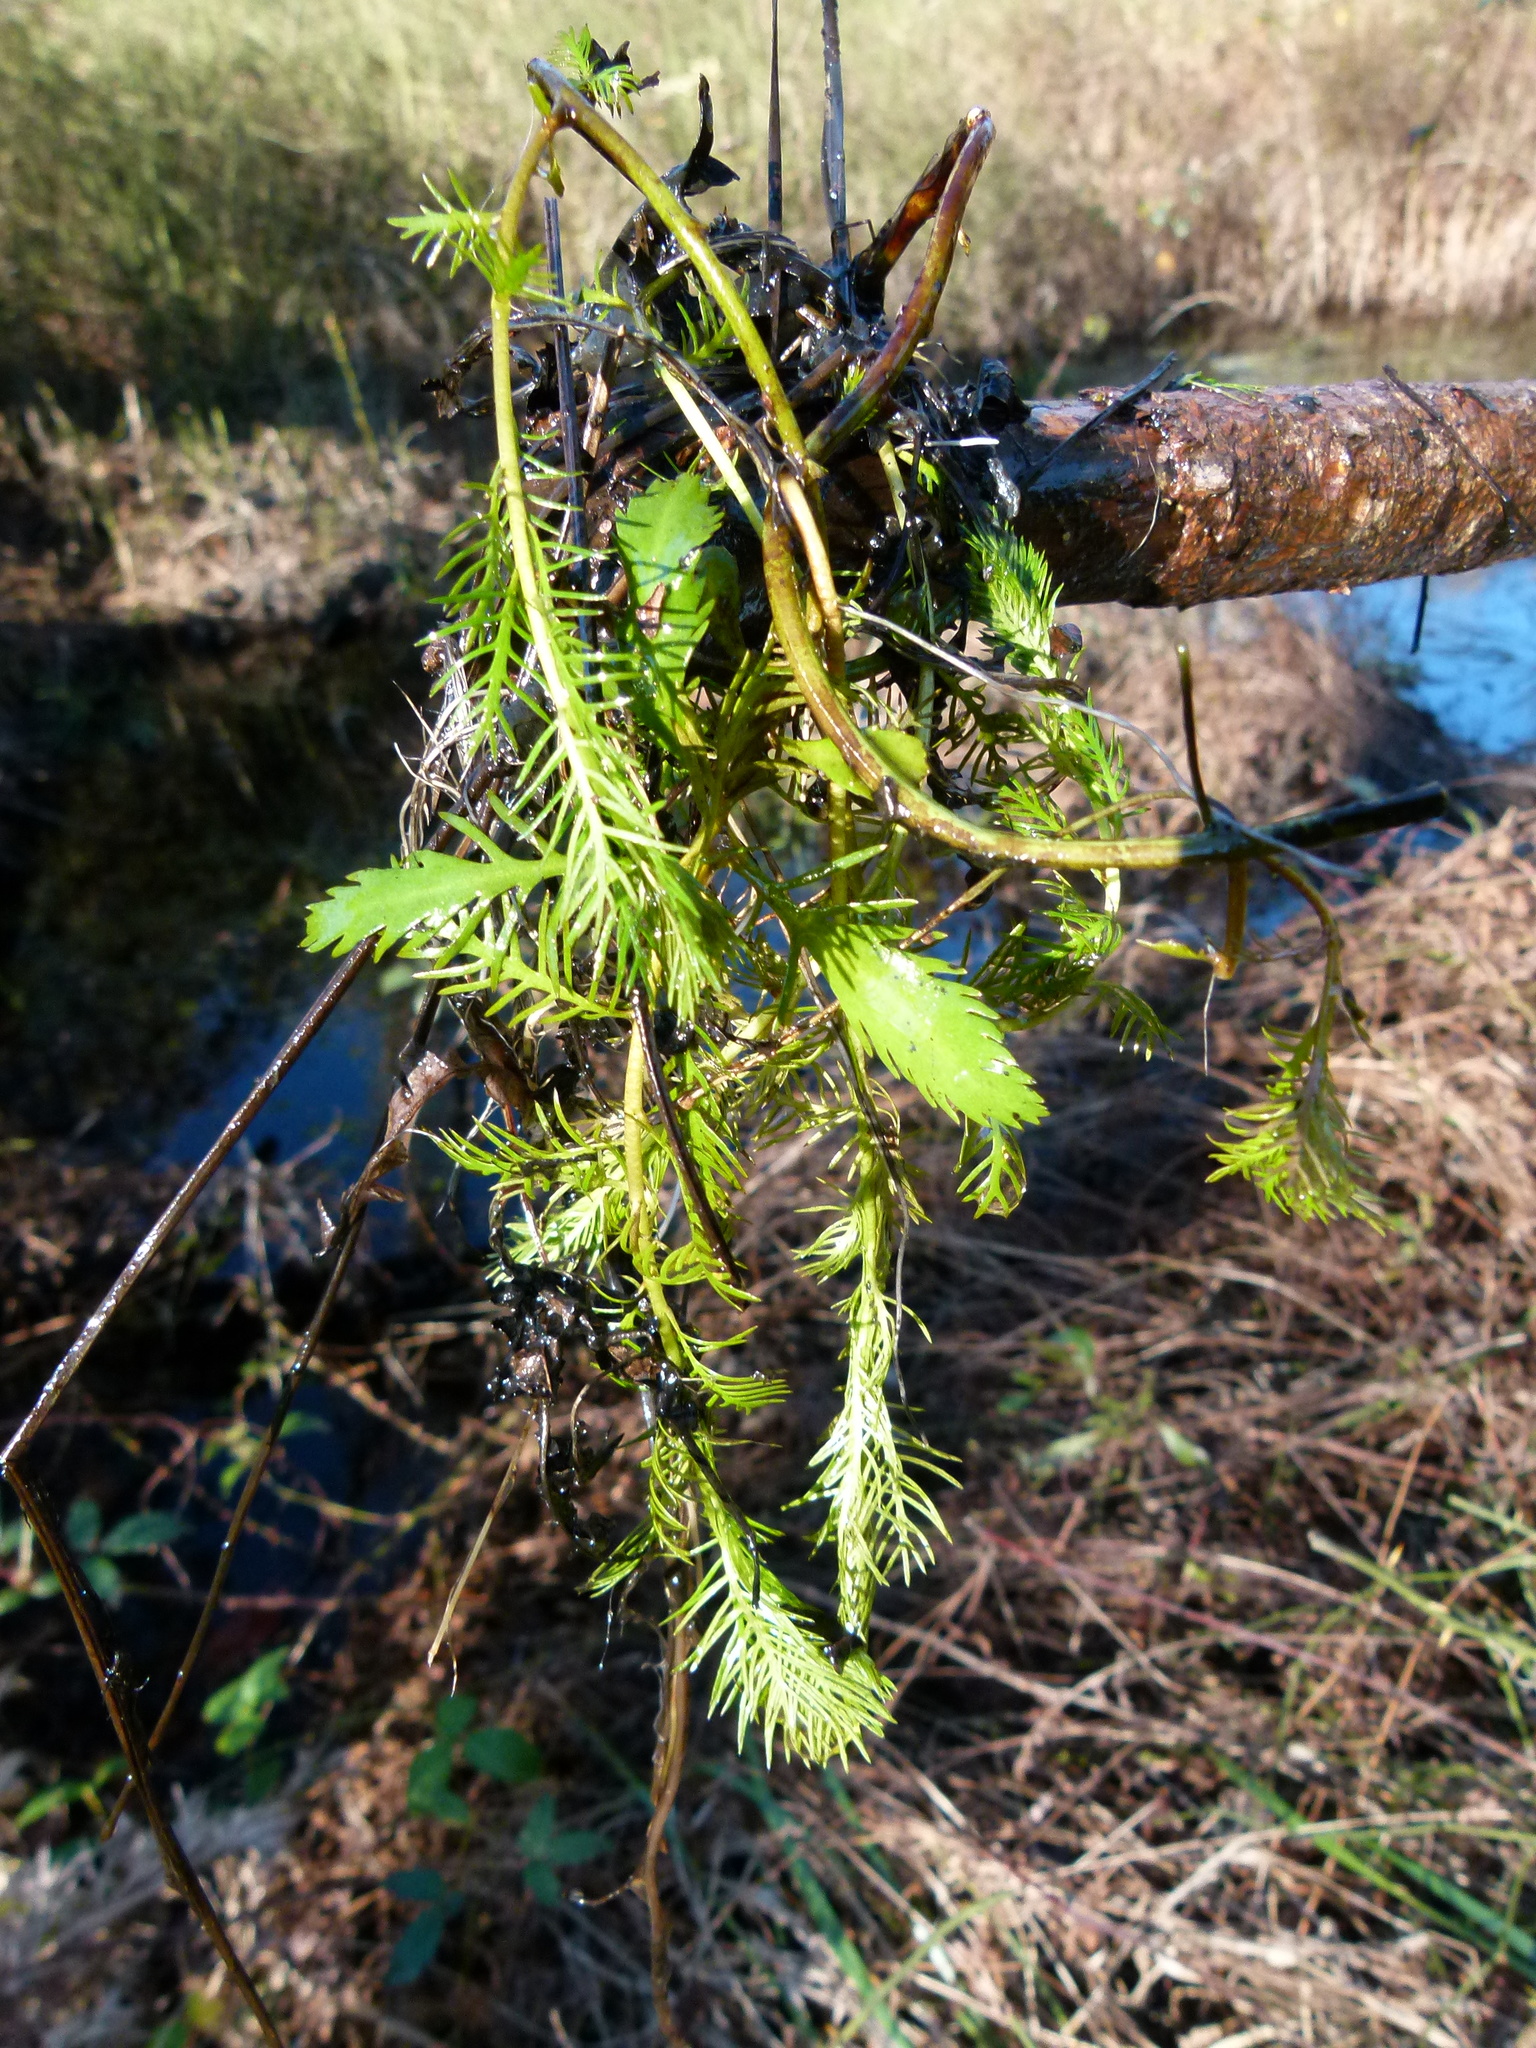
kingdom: Plantae
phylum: Tracheophyta
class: Magnoliopsida
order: Saxifragales
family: Haloragaceae
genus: Proserpinaca
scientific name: Proserpinaca palustris
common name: Marsh mermaidweed
